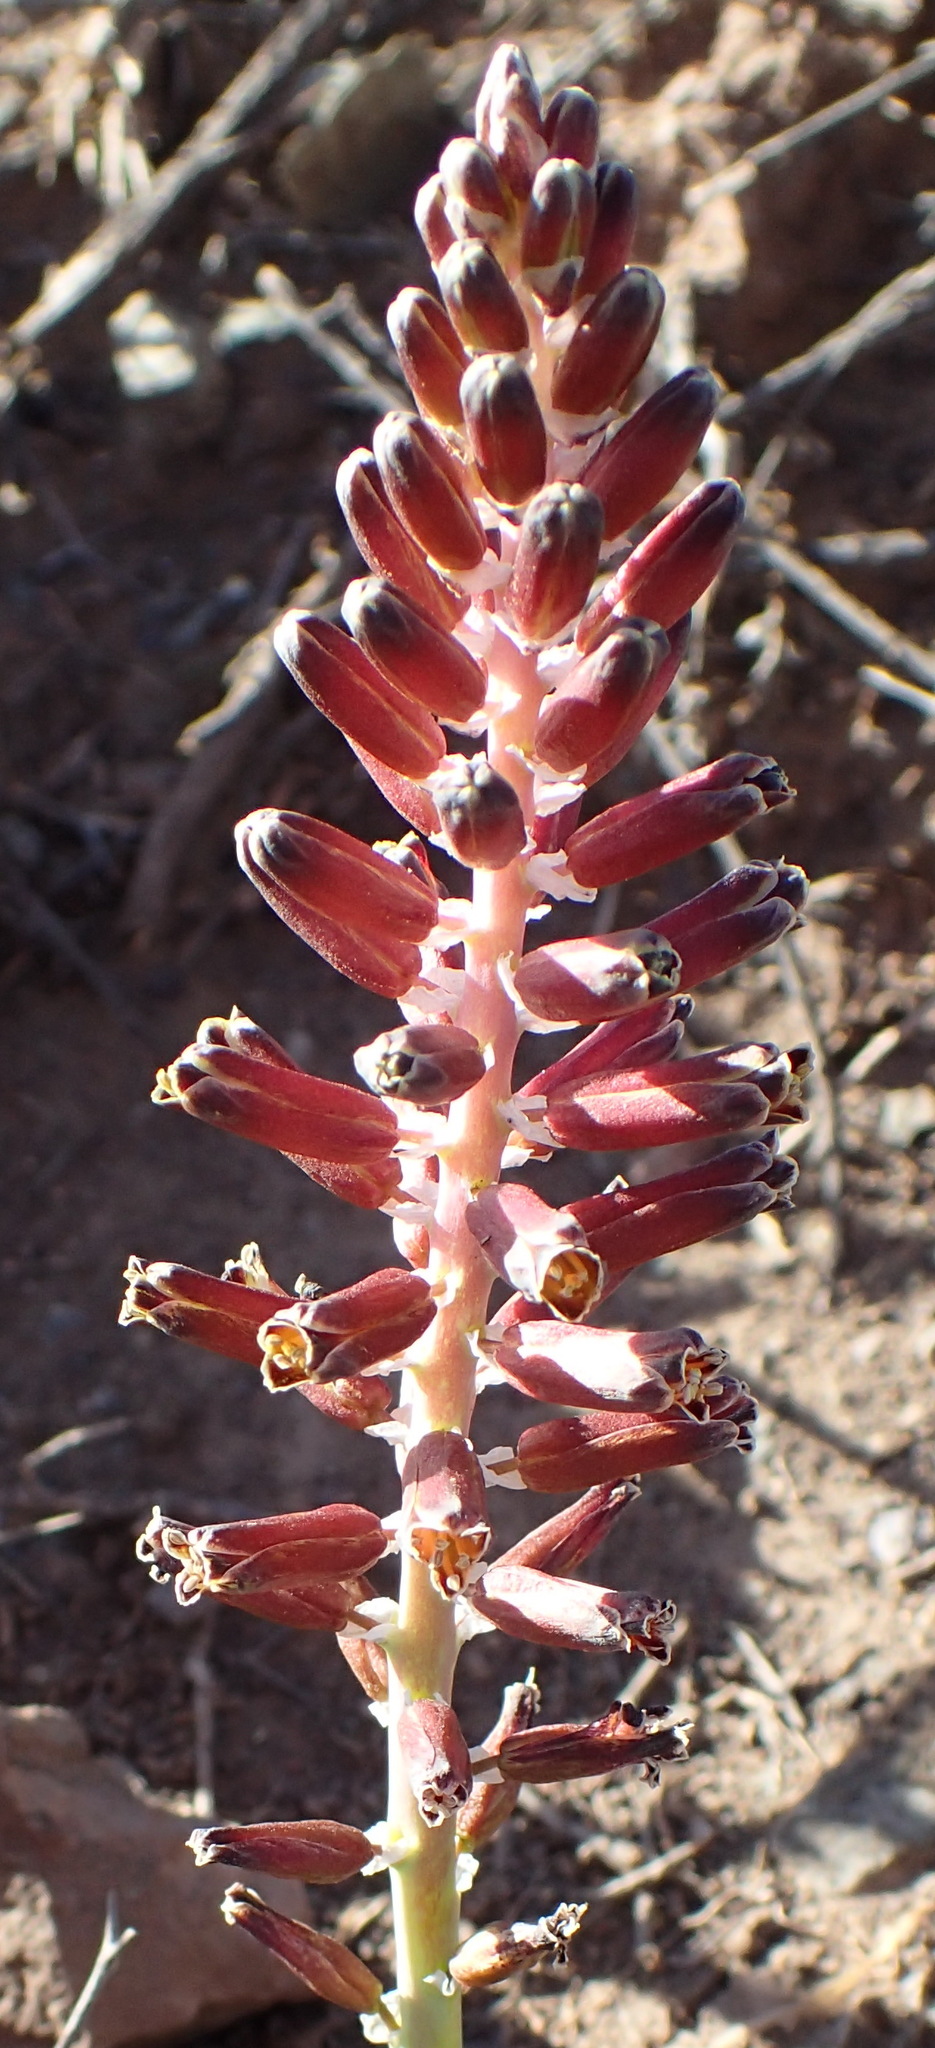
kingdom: Plantae
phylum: Tracheophyta
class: Liliopsida
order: Asparagales
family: Asparagaceae
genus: Pseudolachenalia
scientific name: Pseudolachenalia
